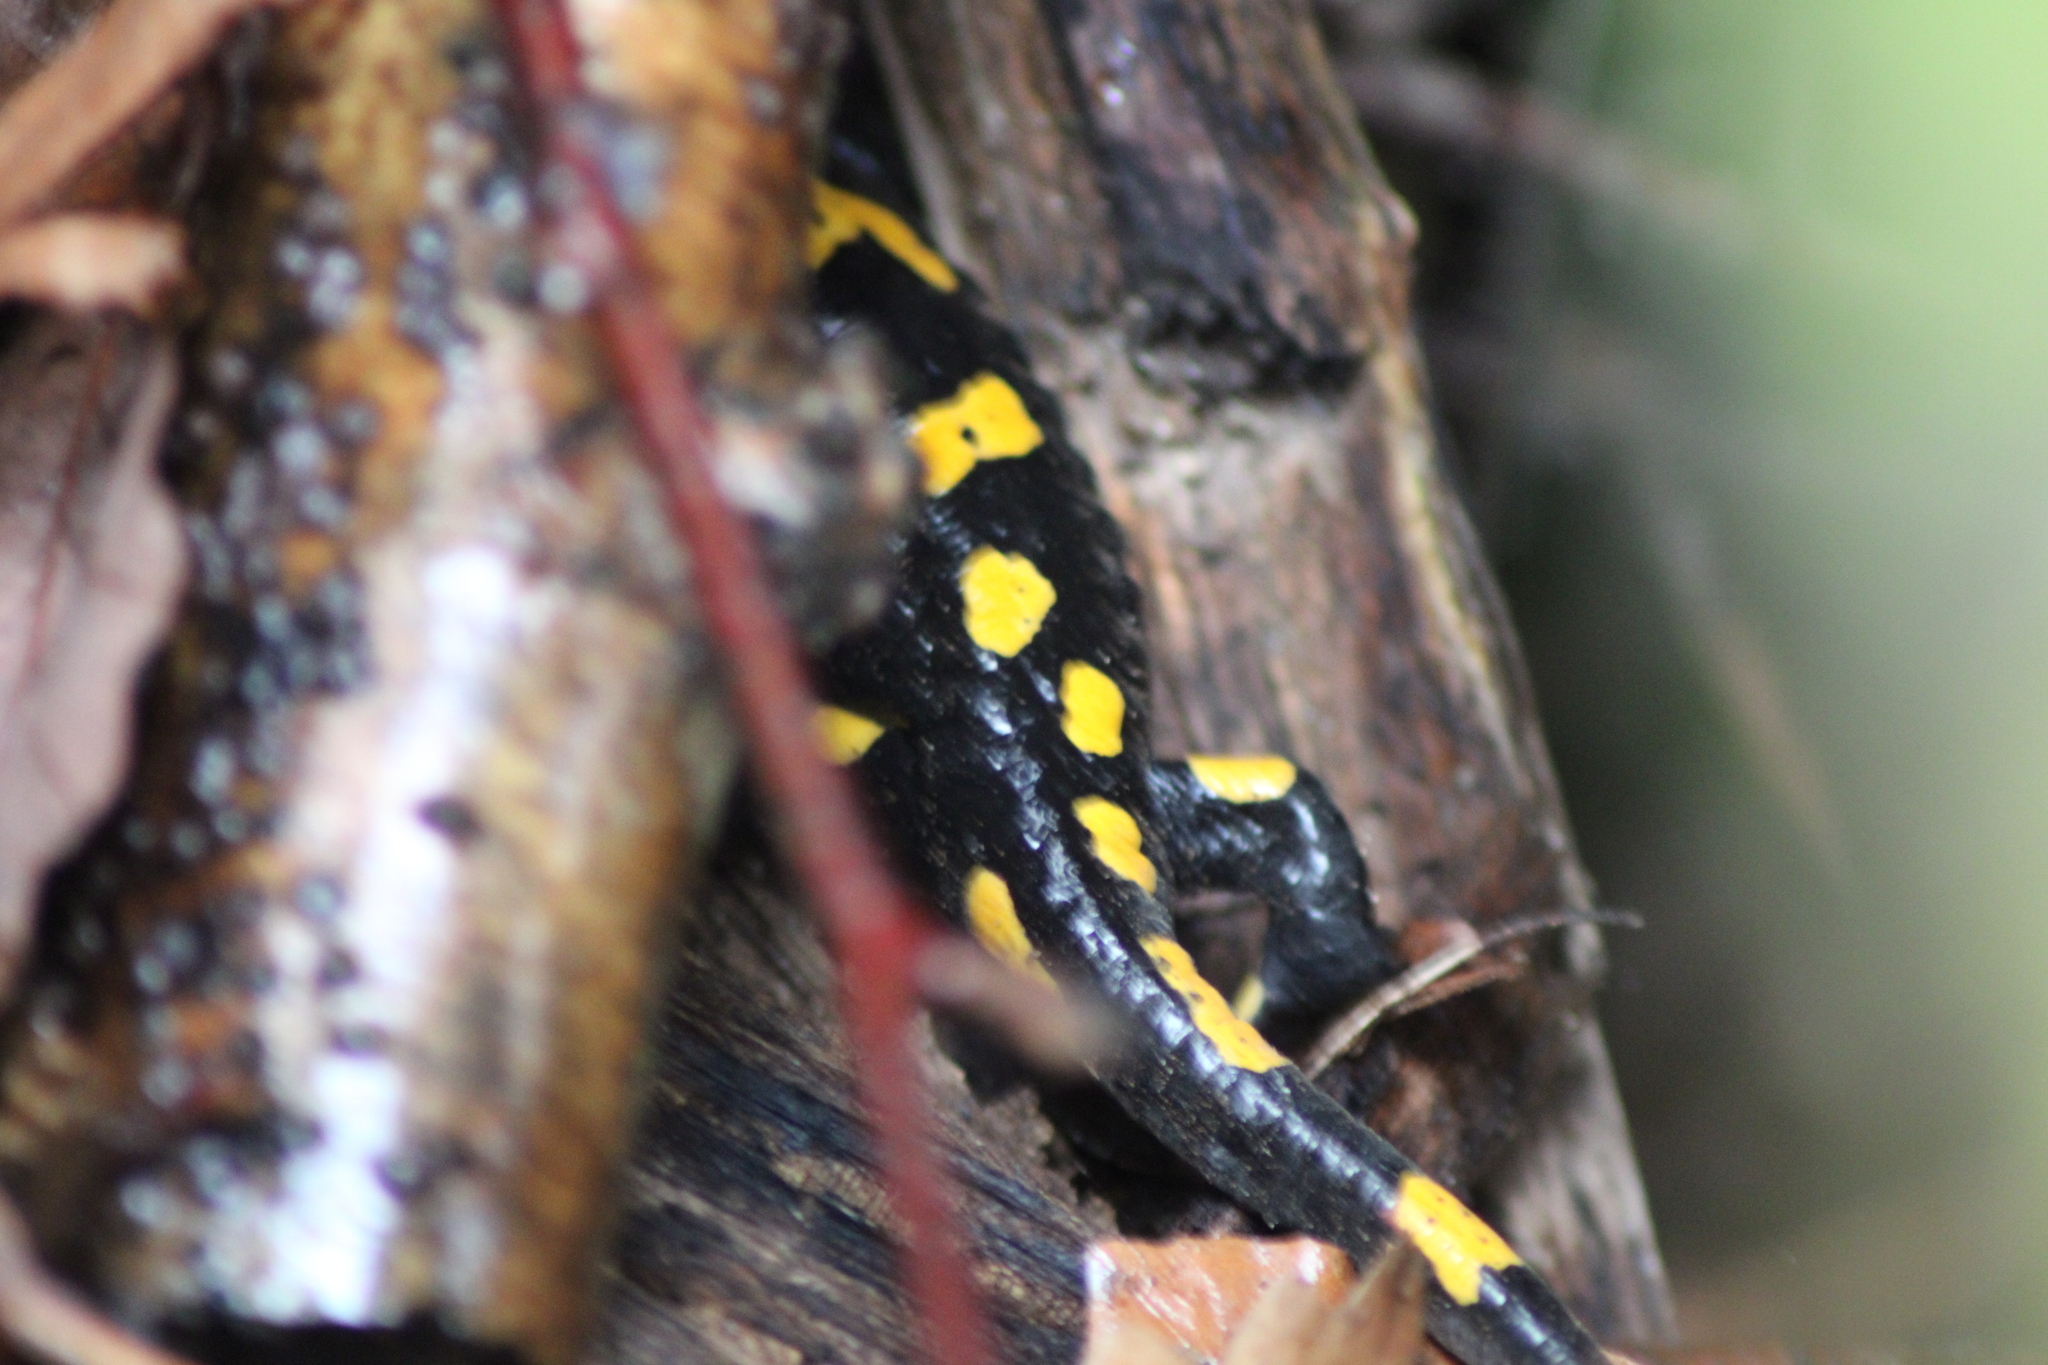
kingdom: Animalia
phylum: Chordata
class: Amphibia
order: Caudata
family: Salamandridae
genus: Salamandra
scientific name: Salamandra salamandra
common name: Fire salamander
